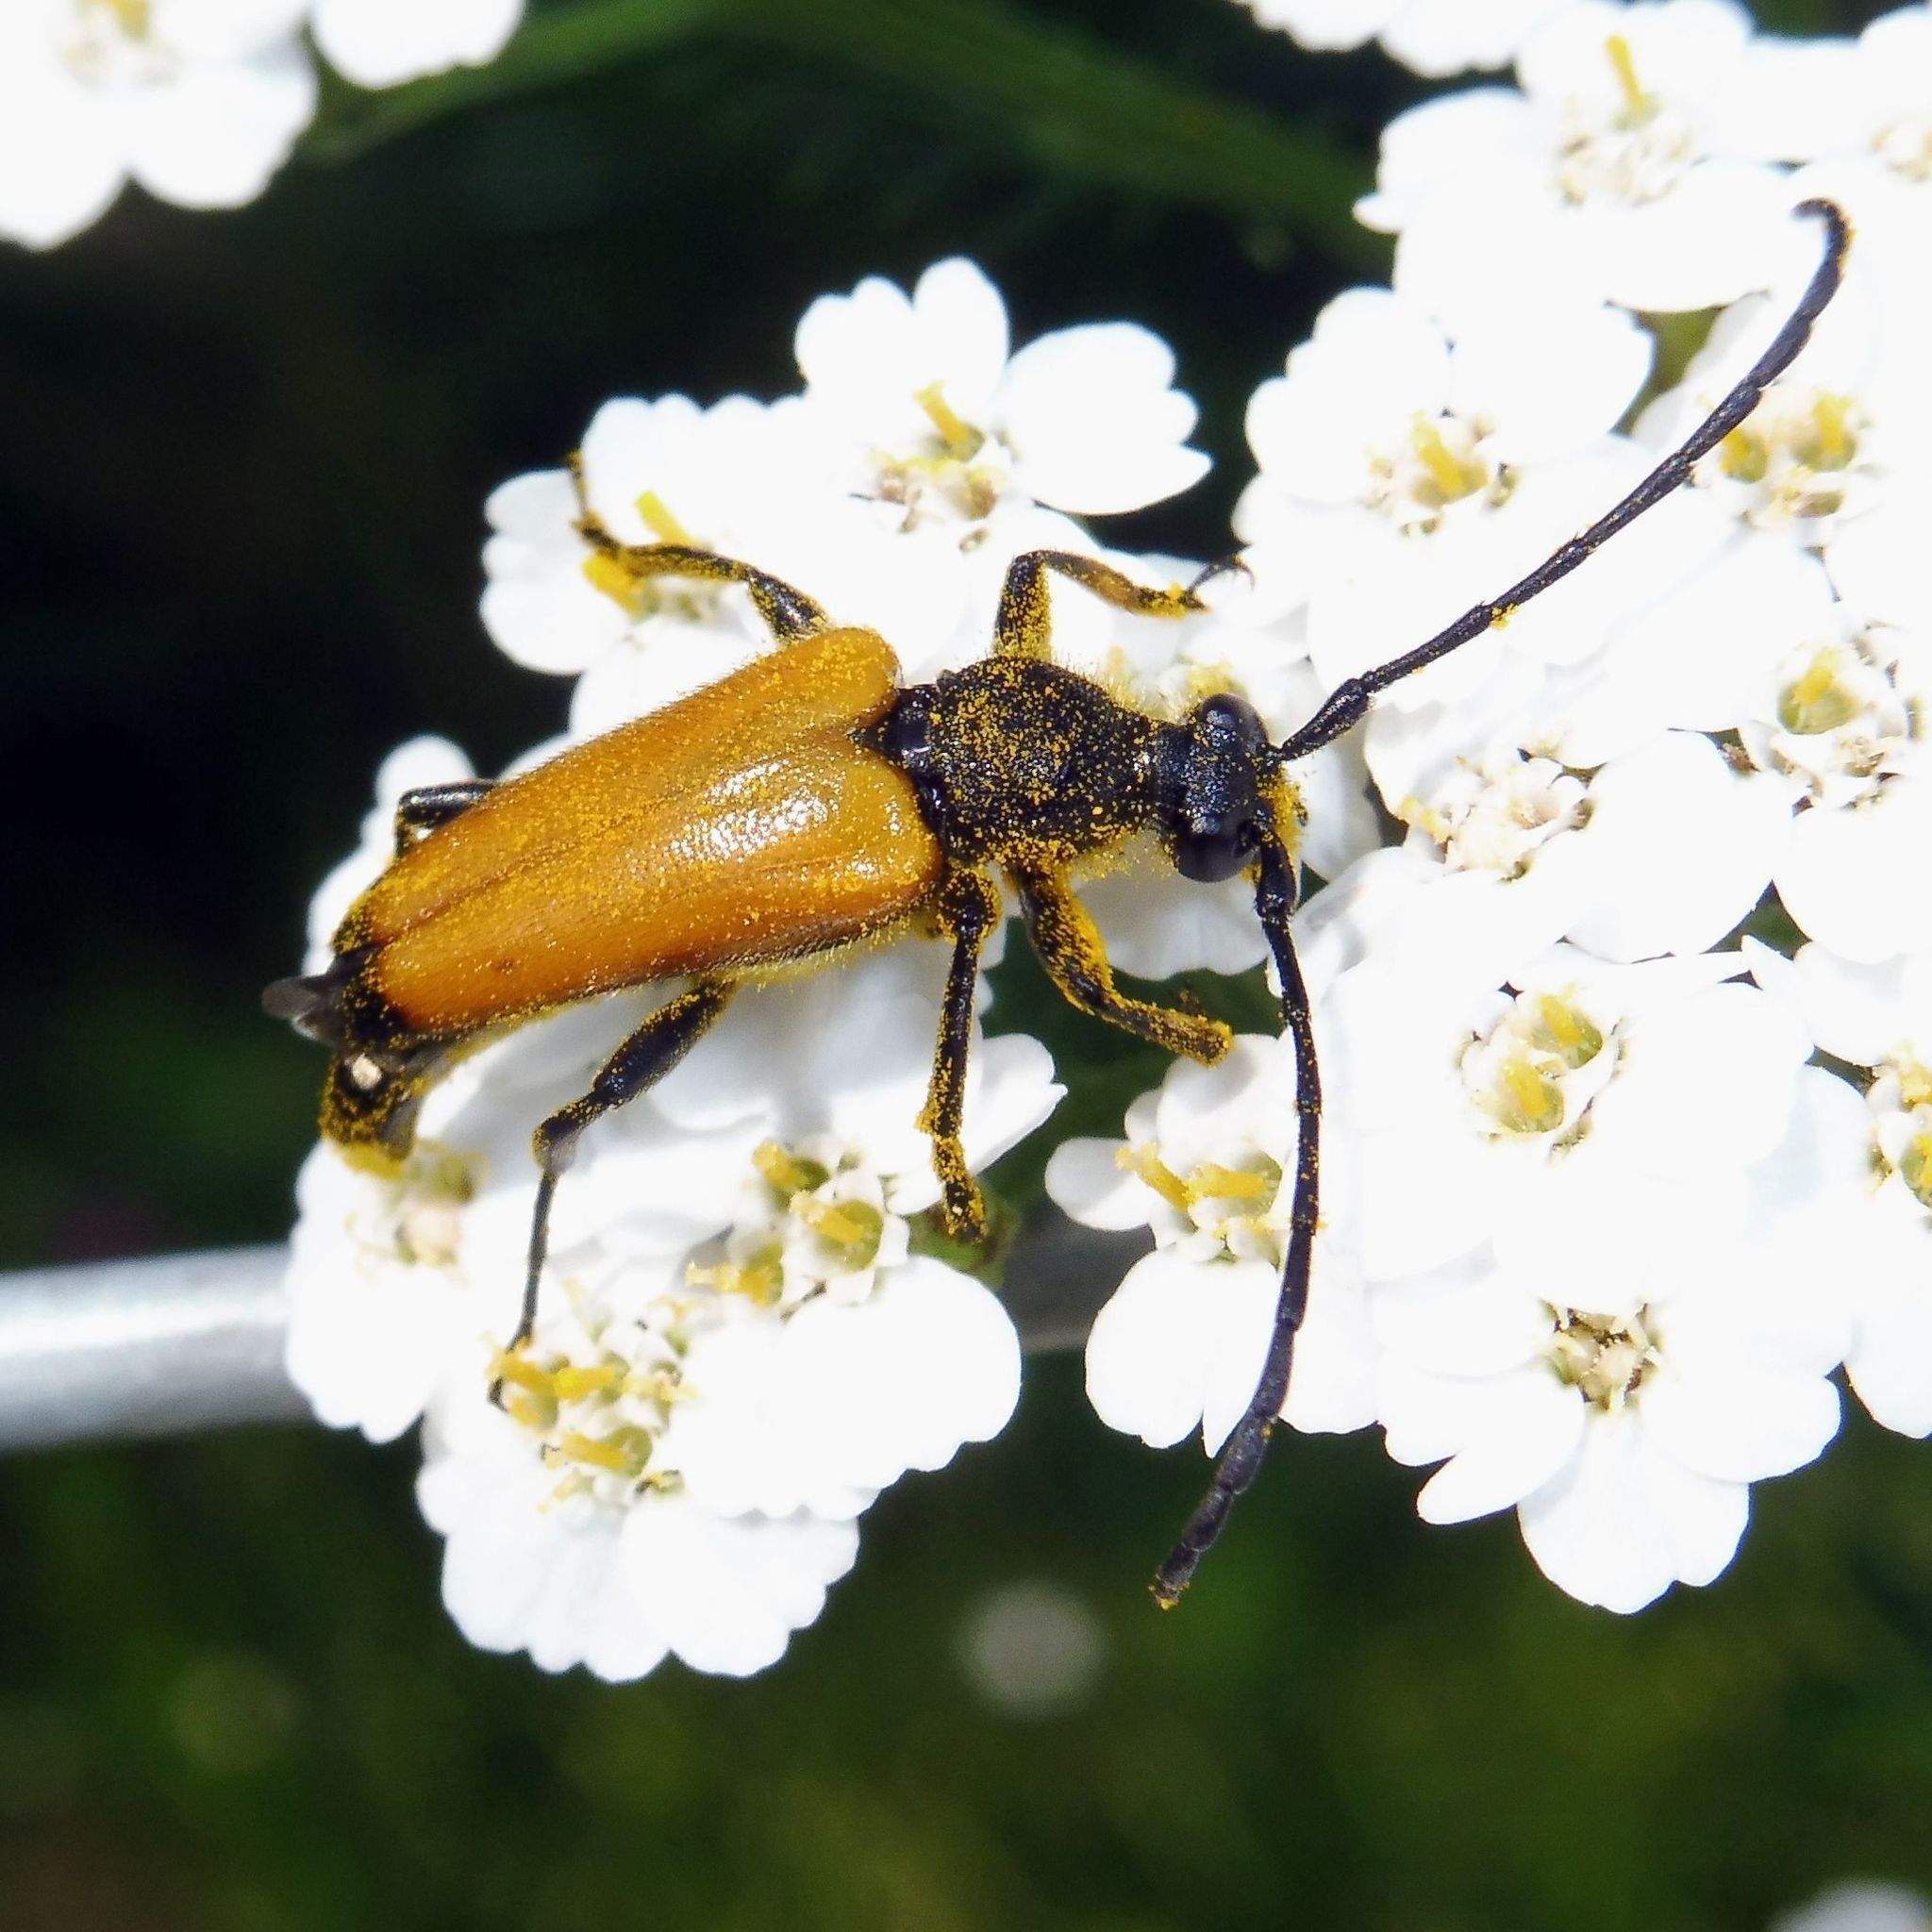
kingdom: Animalia
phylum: Arthropoda
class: Insecta
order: Coleoptera
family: Cerambycidae
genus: Paracorymbia
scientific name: Paracorymbia fulva
